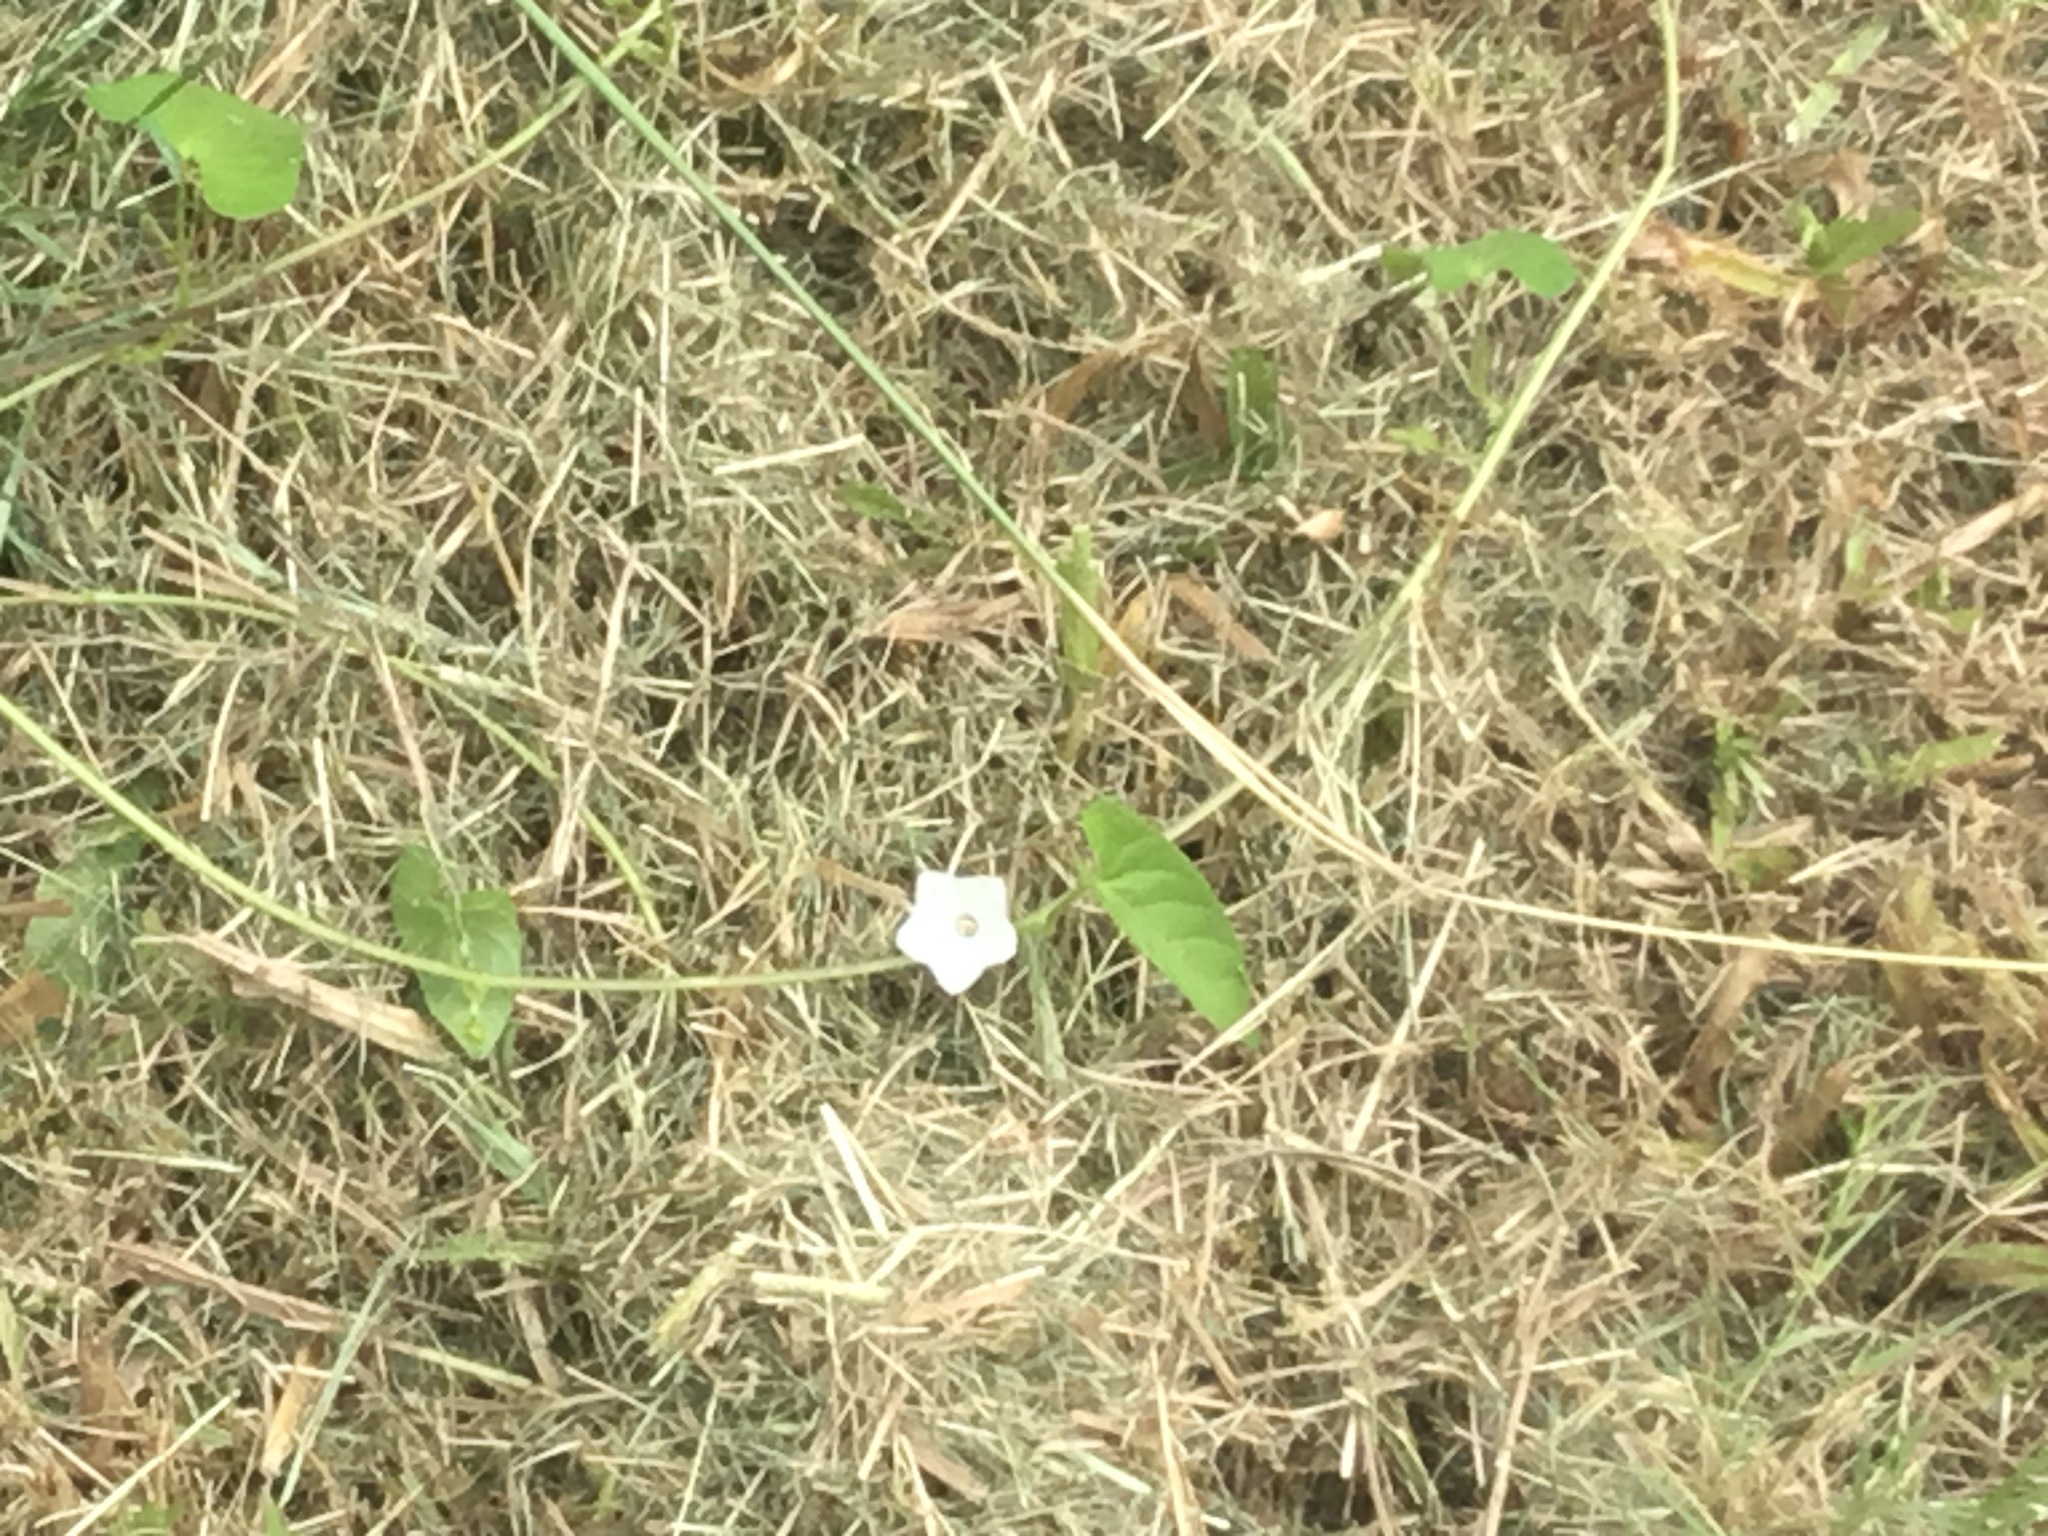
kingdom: Plantae
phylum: Tracheophyta
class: Magnoliopsida
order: Solanales
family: Convolvulaceae
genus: Ipomoea
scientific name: Ipomoea biflora
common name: Bellvine
